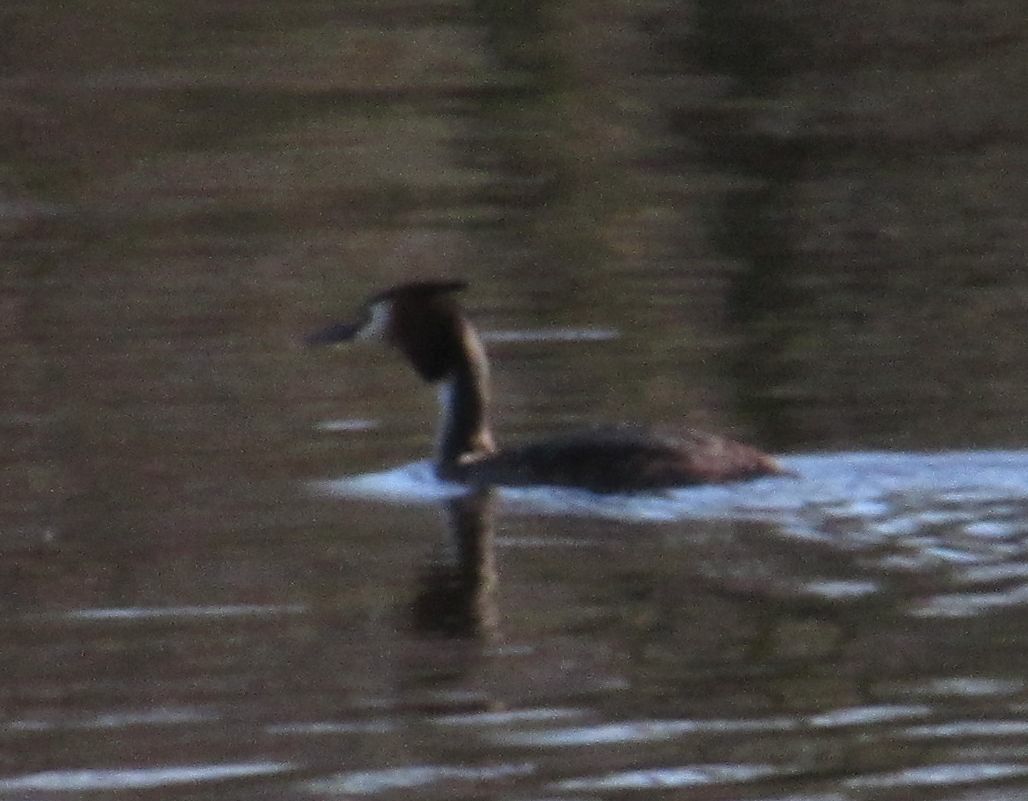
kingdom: Animalia
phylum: Chordata
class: Aves
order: Podicipediformes
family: Podicipedidae
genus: Podiceps
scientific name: Podiceps cristatus
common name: Great crested grebe
